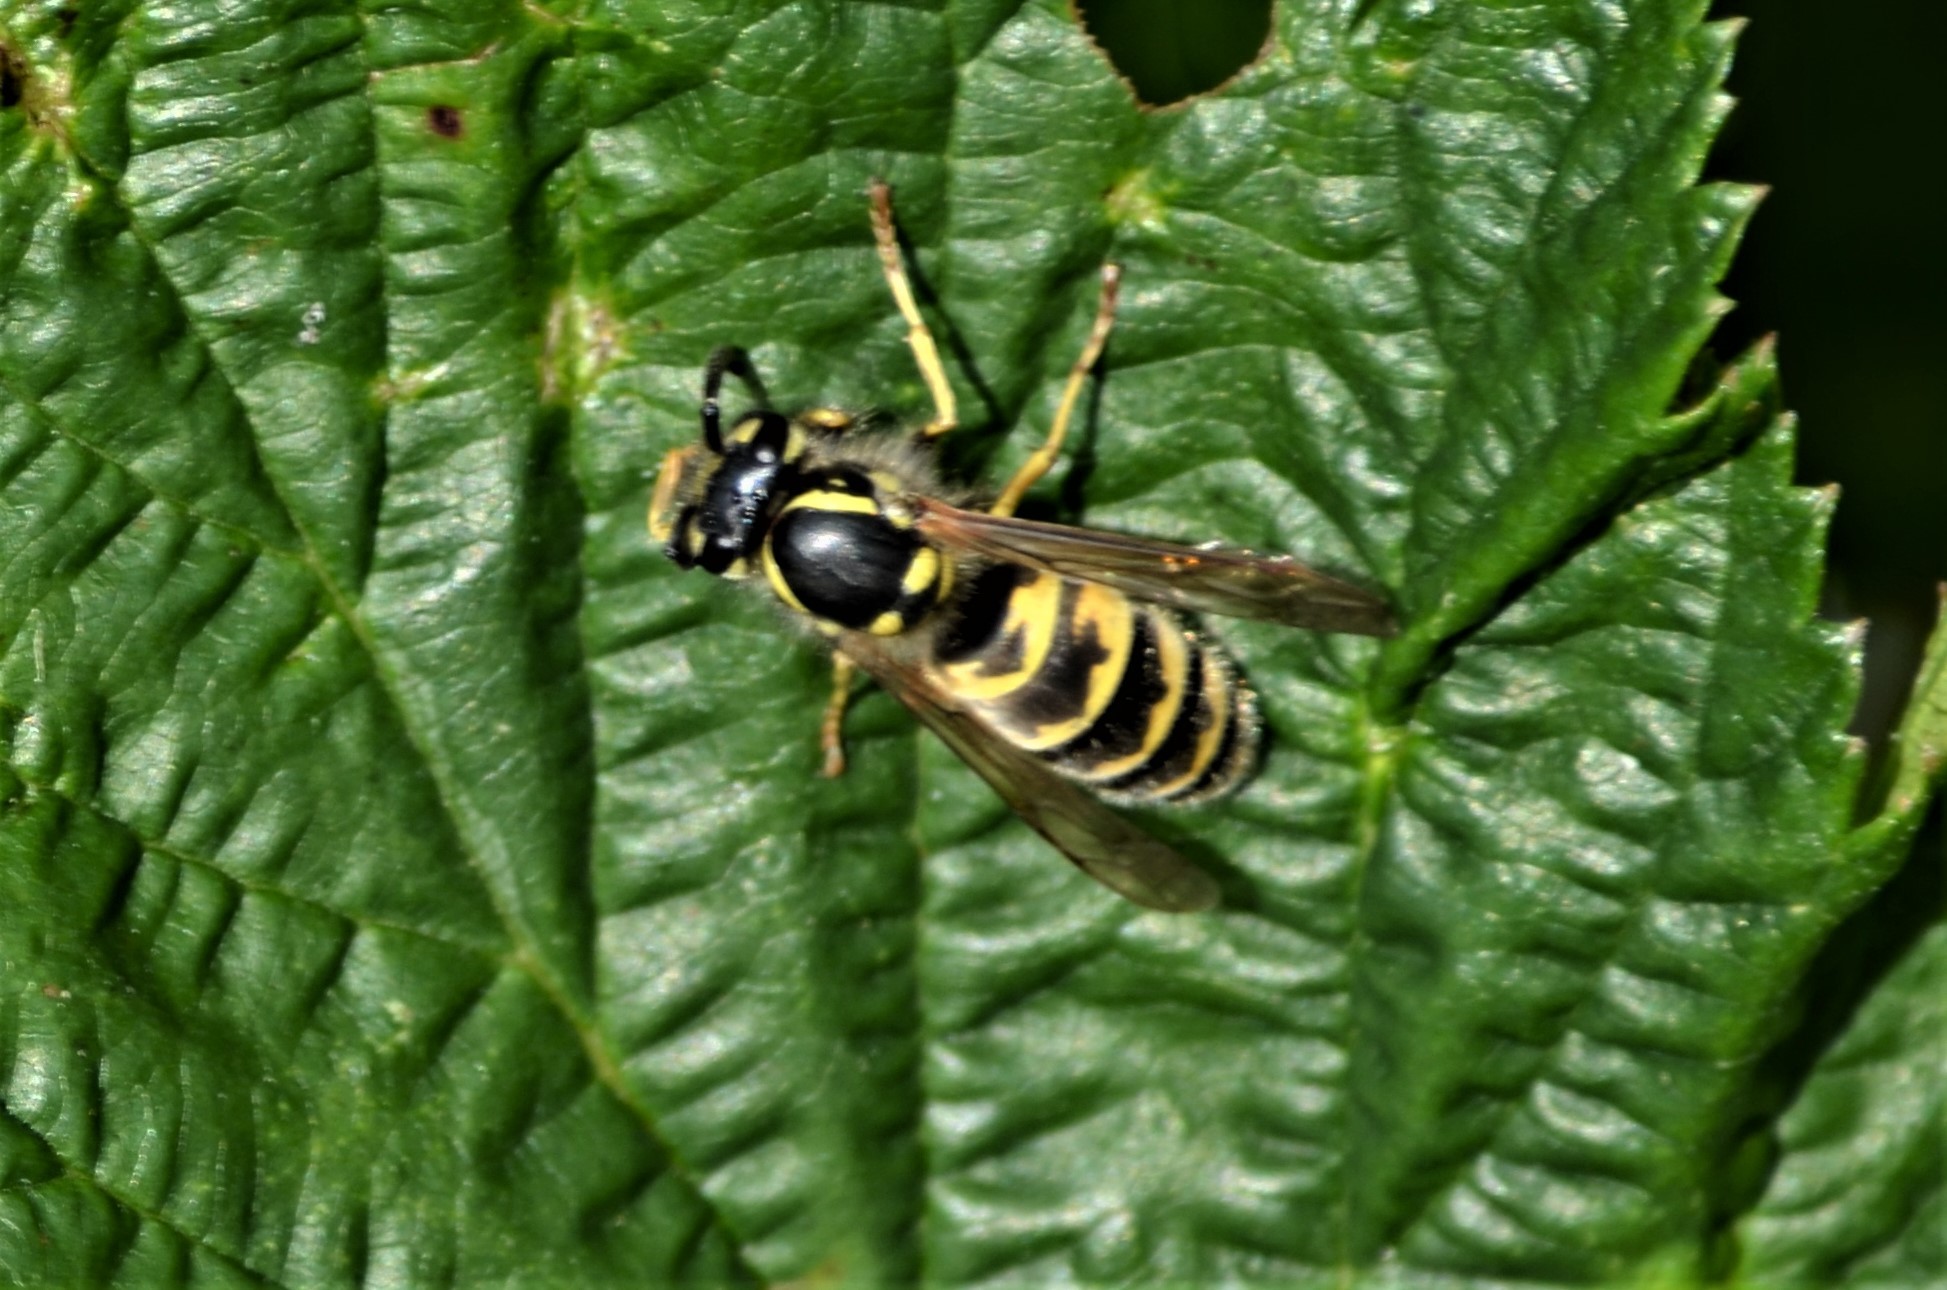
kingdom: Animalia
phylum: Arthropoda
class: Insecta
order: Hymenoptera
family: Vespidae
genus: Vespula
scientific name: Vespula vulgaris
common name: Common wasp
